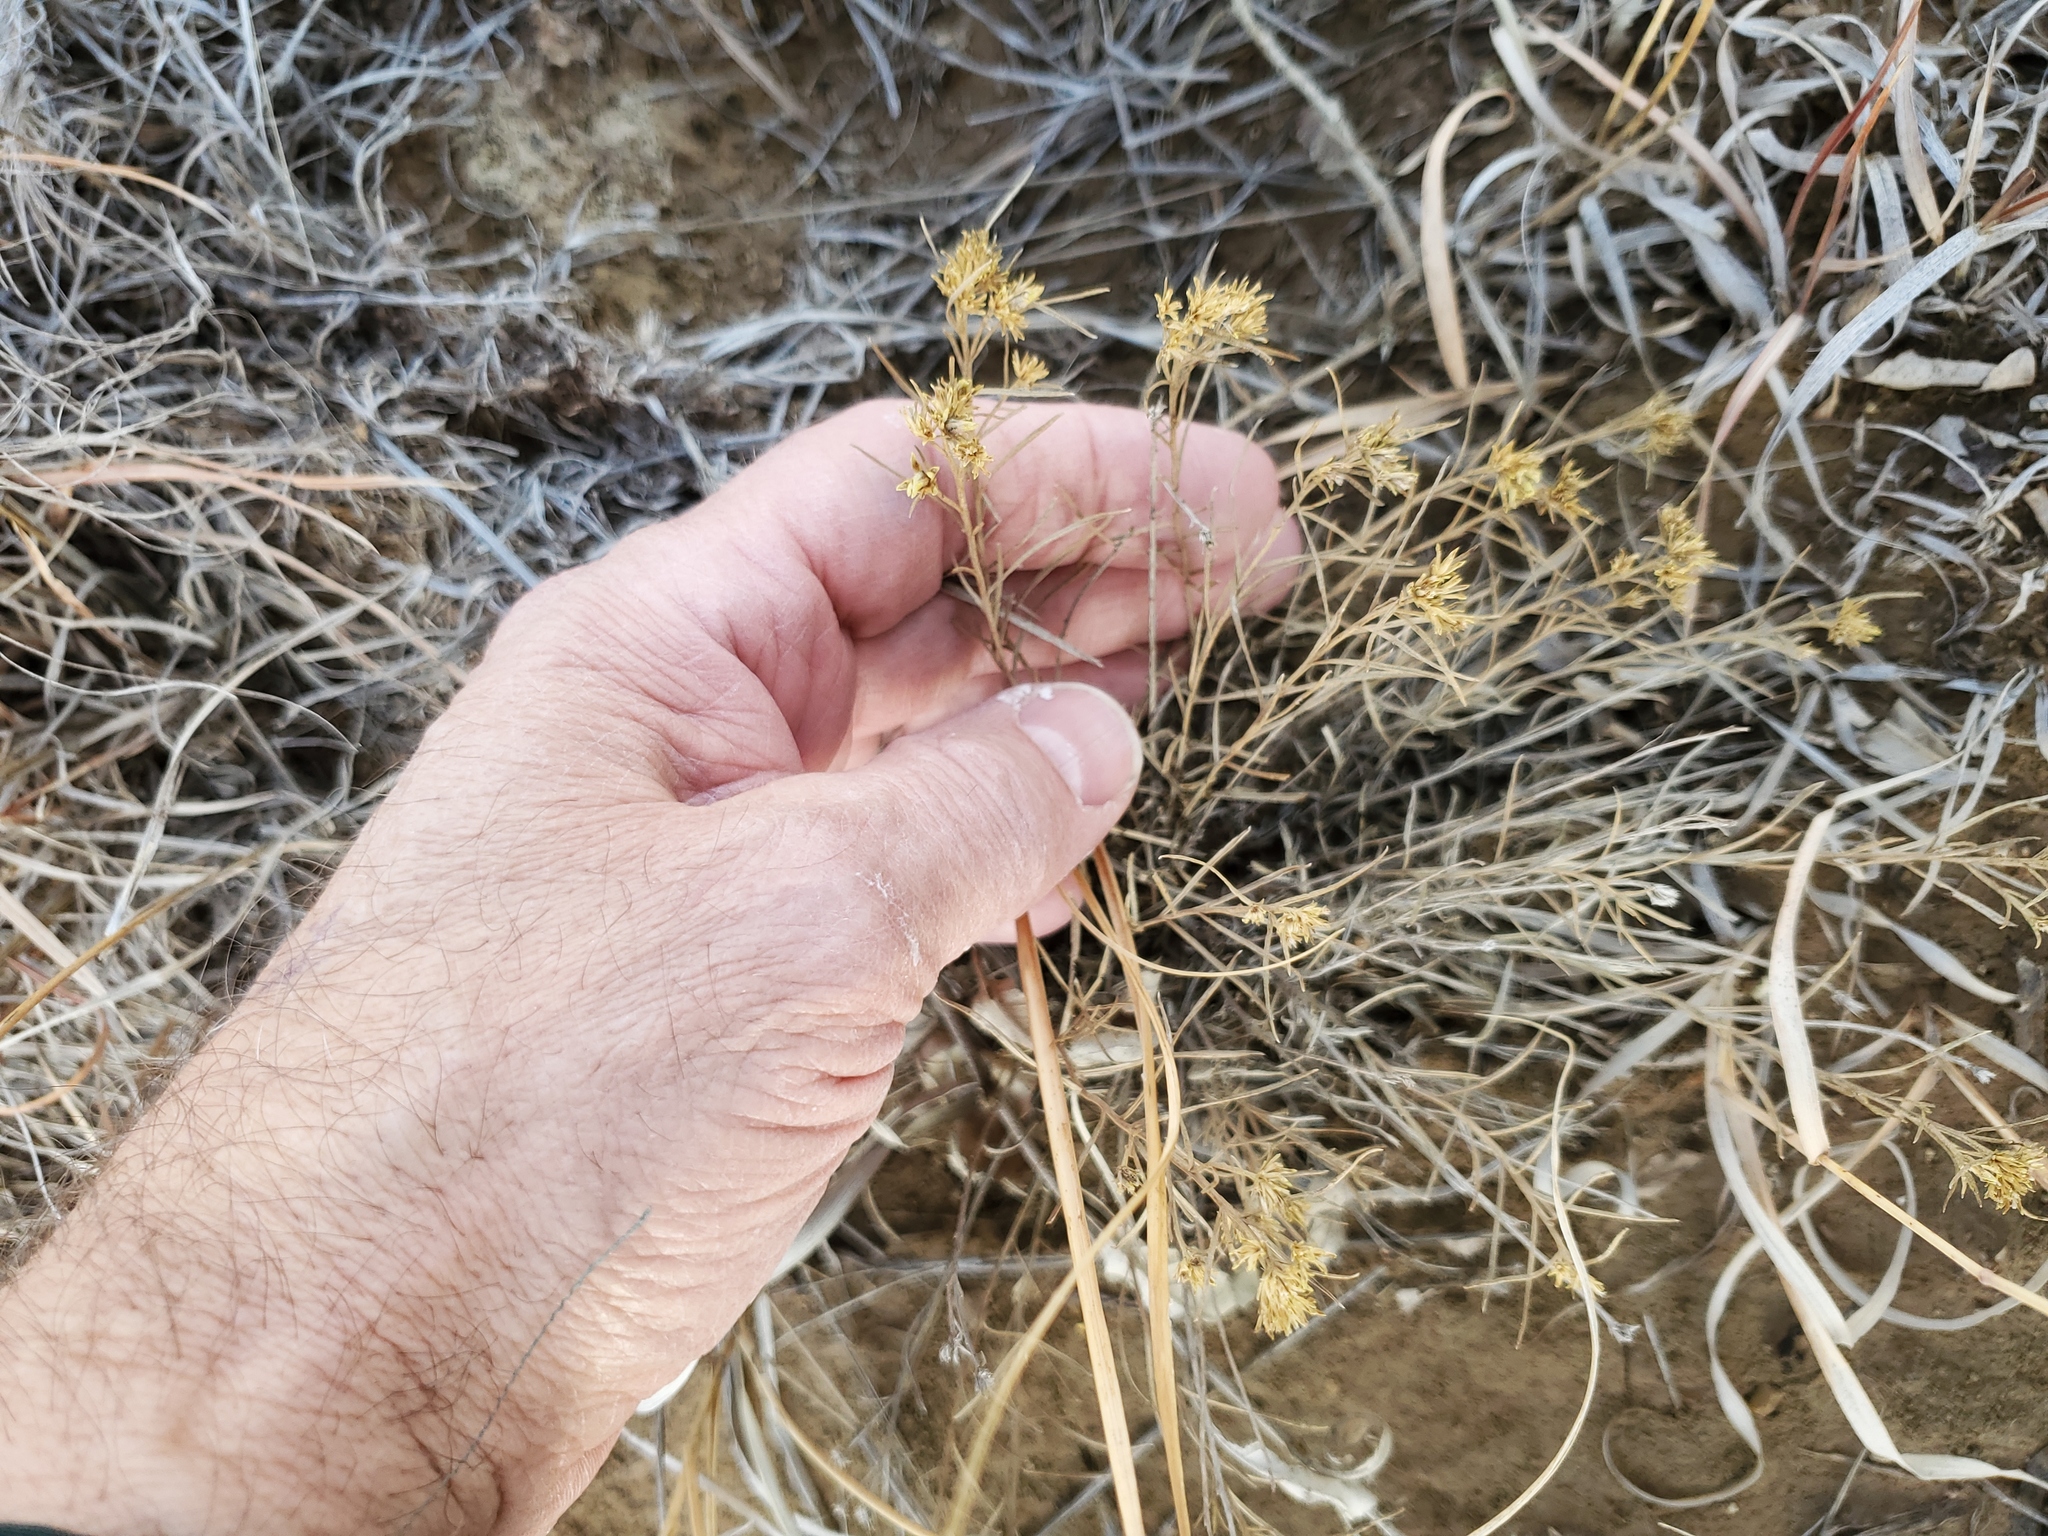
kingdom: Plantae
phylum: Tracheophyta
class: Magnoliopsida
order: Asterales
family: Asteraceae
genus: Gutierrezia
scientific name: Gutierrezia sarothrae
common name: Broom snakeweed
